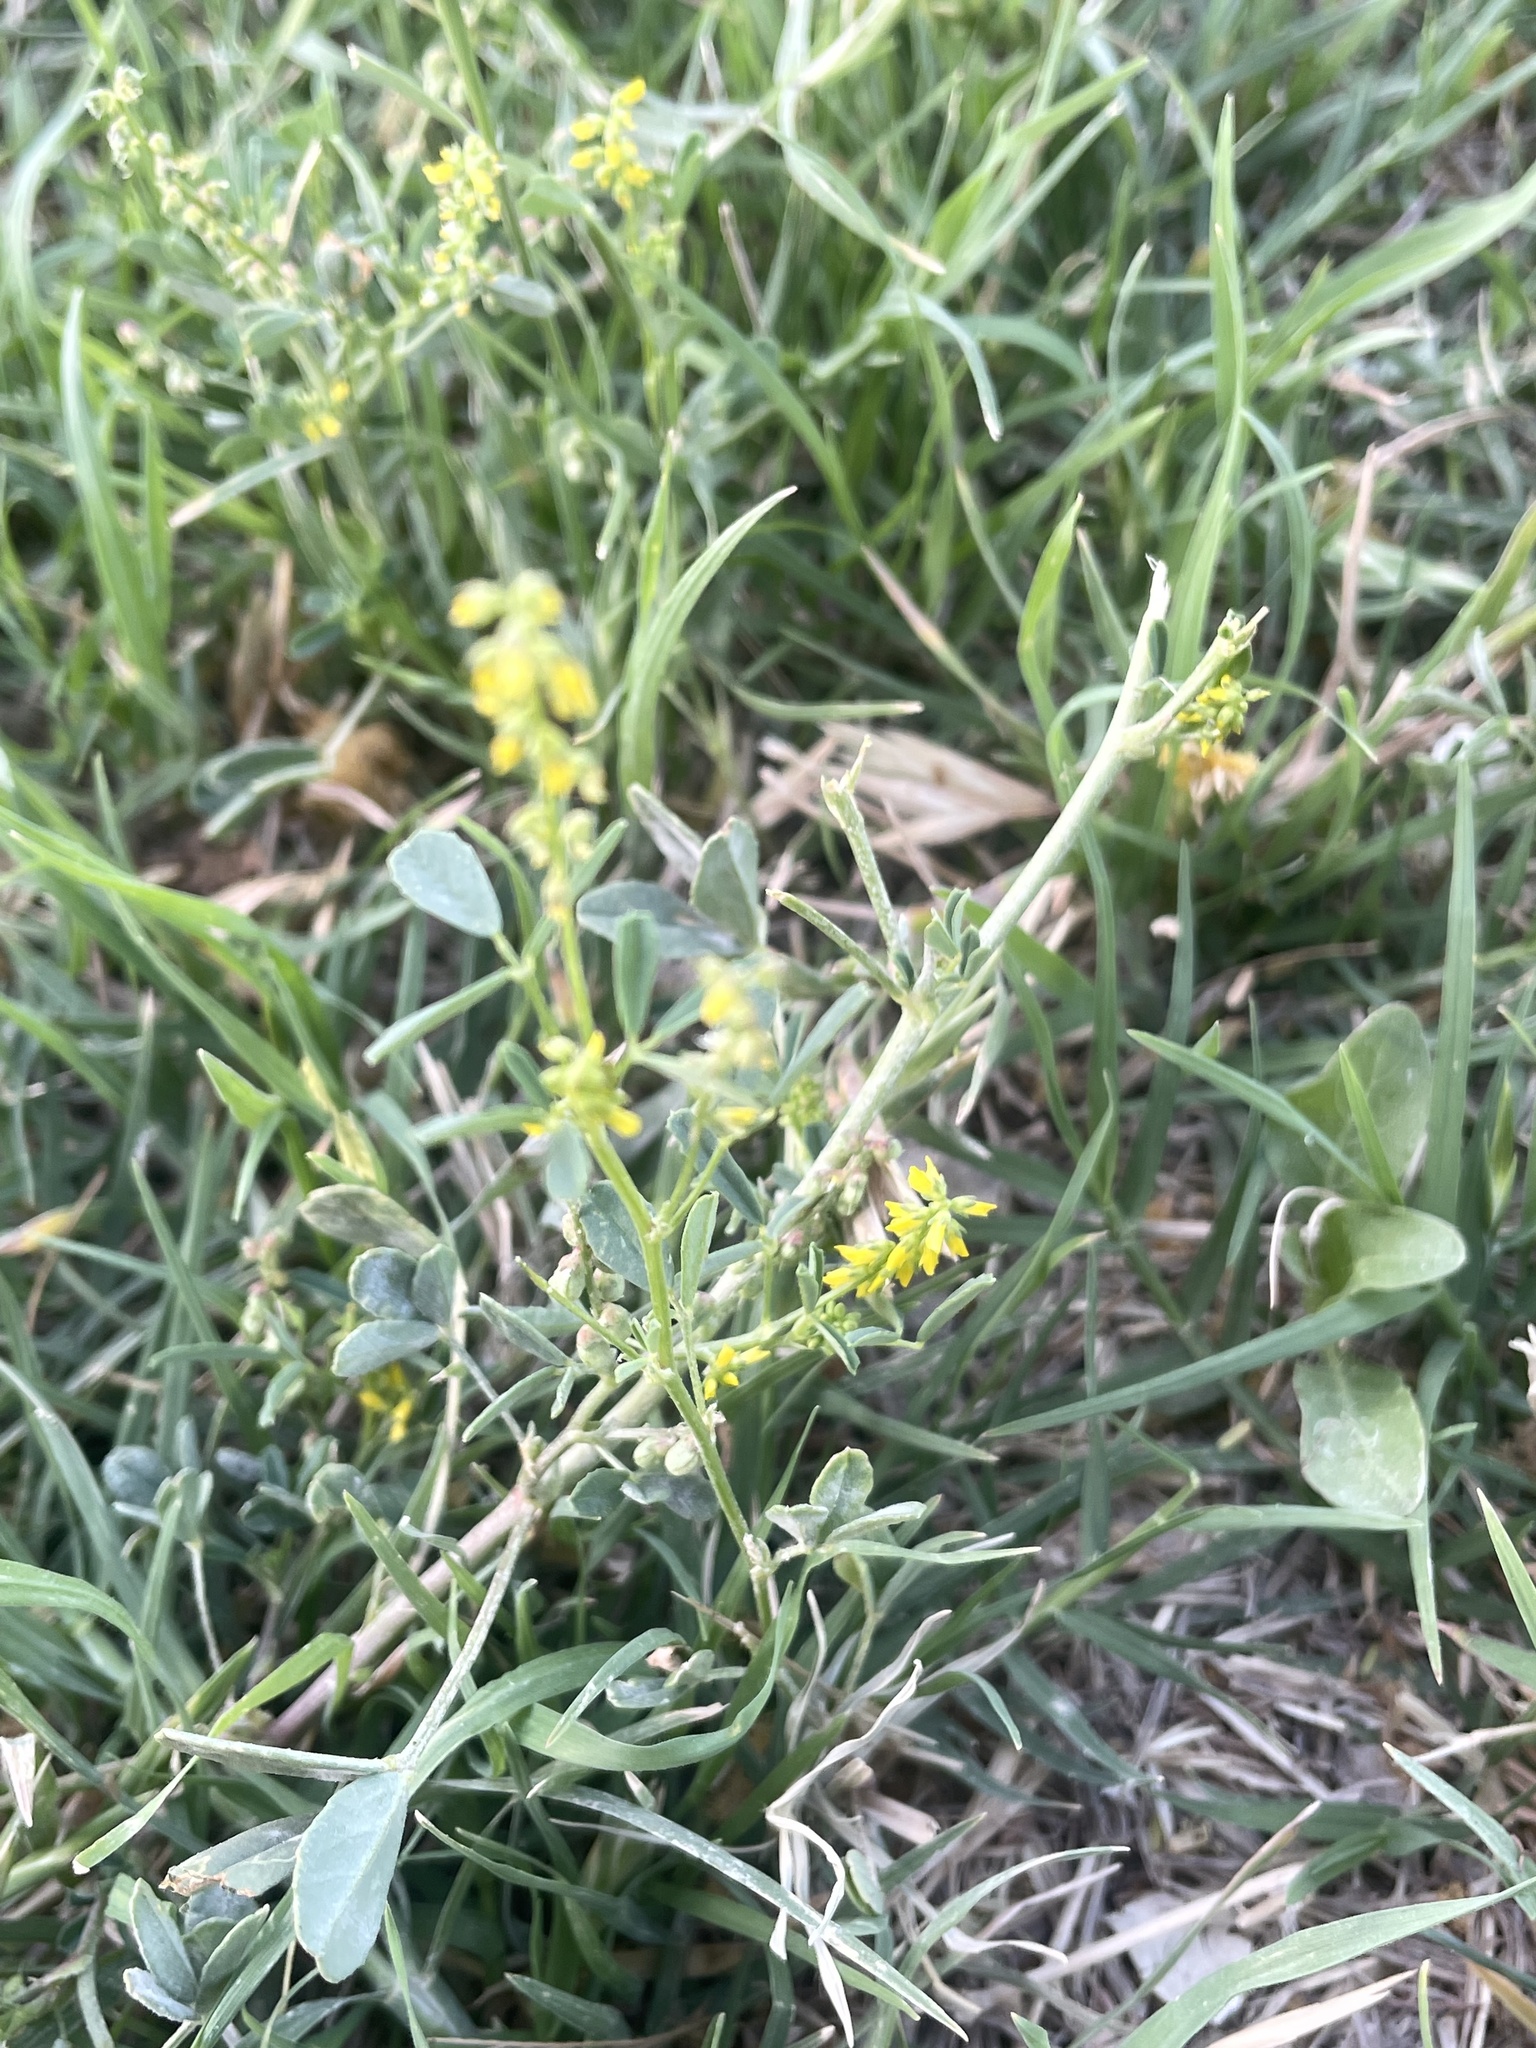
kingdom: Plantae
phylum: Tracheophyta
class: Magnoliopsida
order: Fabales
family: Fabaceae
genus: Melilotus
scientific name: Melilotus indicus
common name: Small melilot
